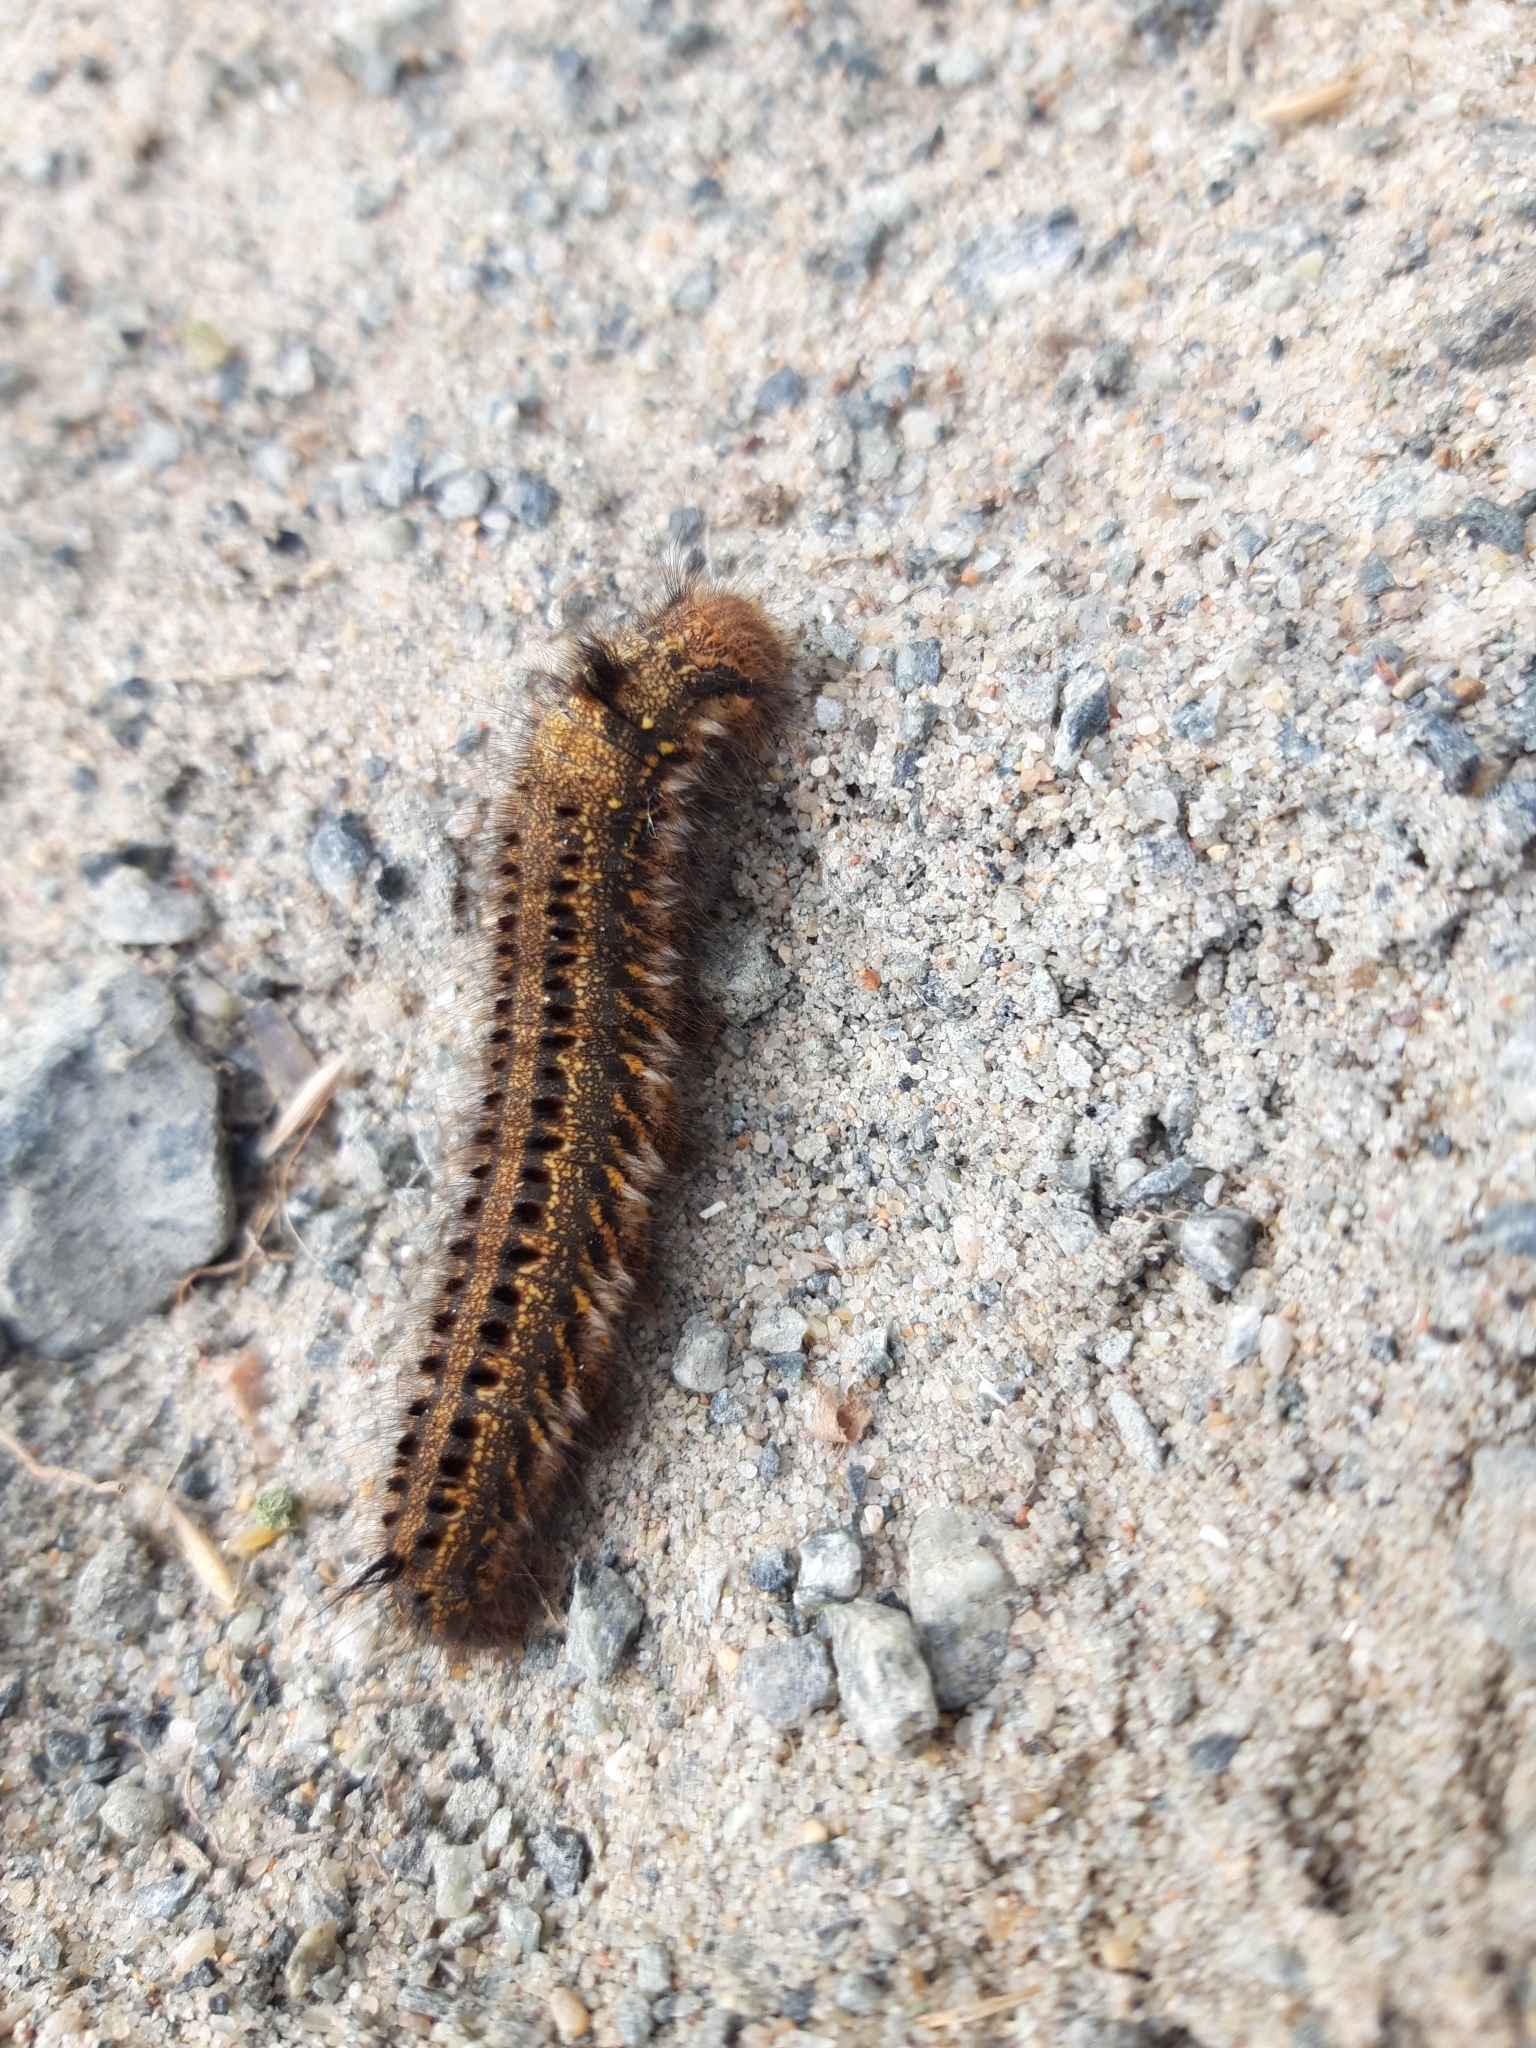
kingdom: Animalia
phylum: Arthropoda
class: Insecta
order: Lepidoptera
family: Lasiocampidae
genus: Euthrix
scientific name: Euthrix potatoria
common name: Drinker
